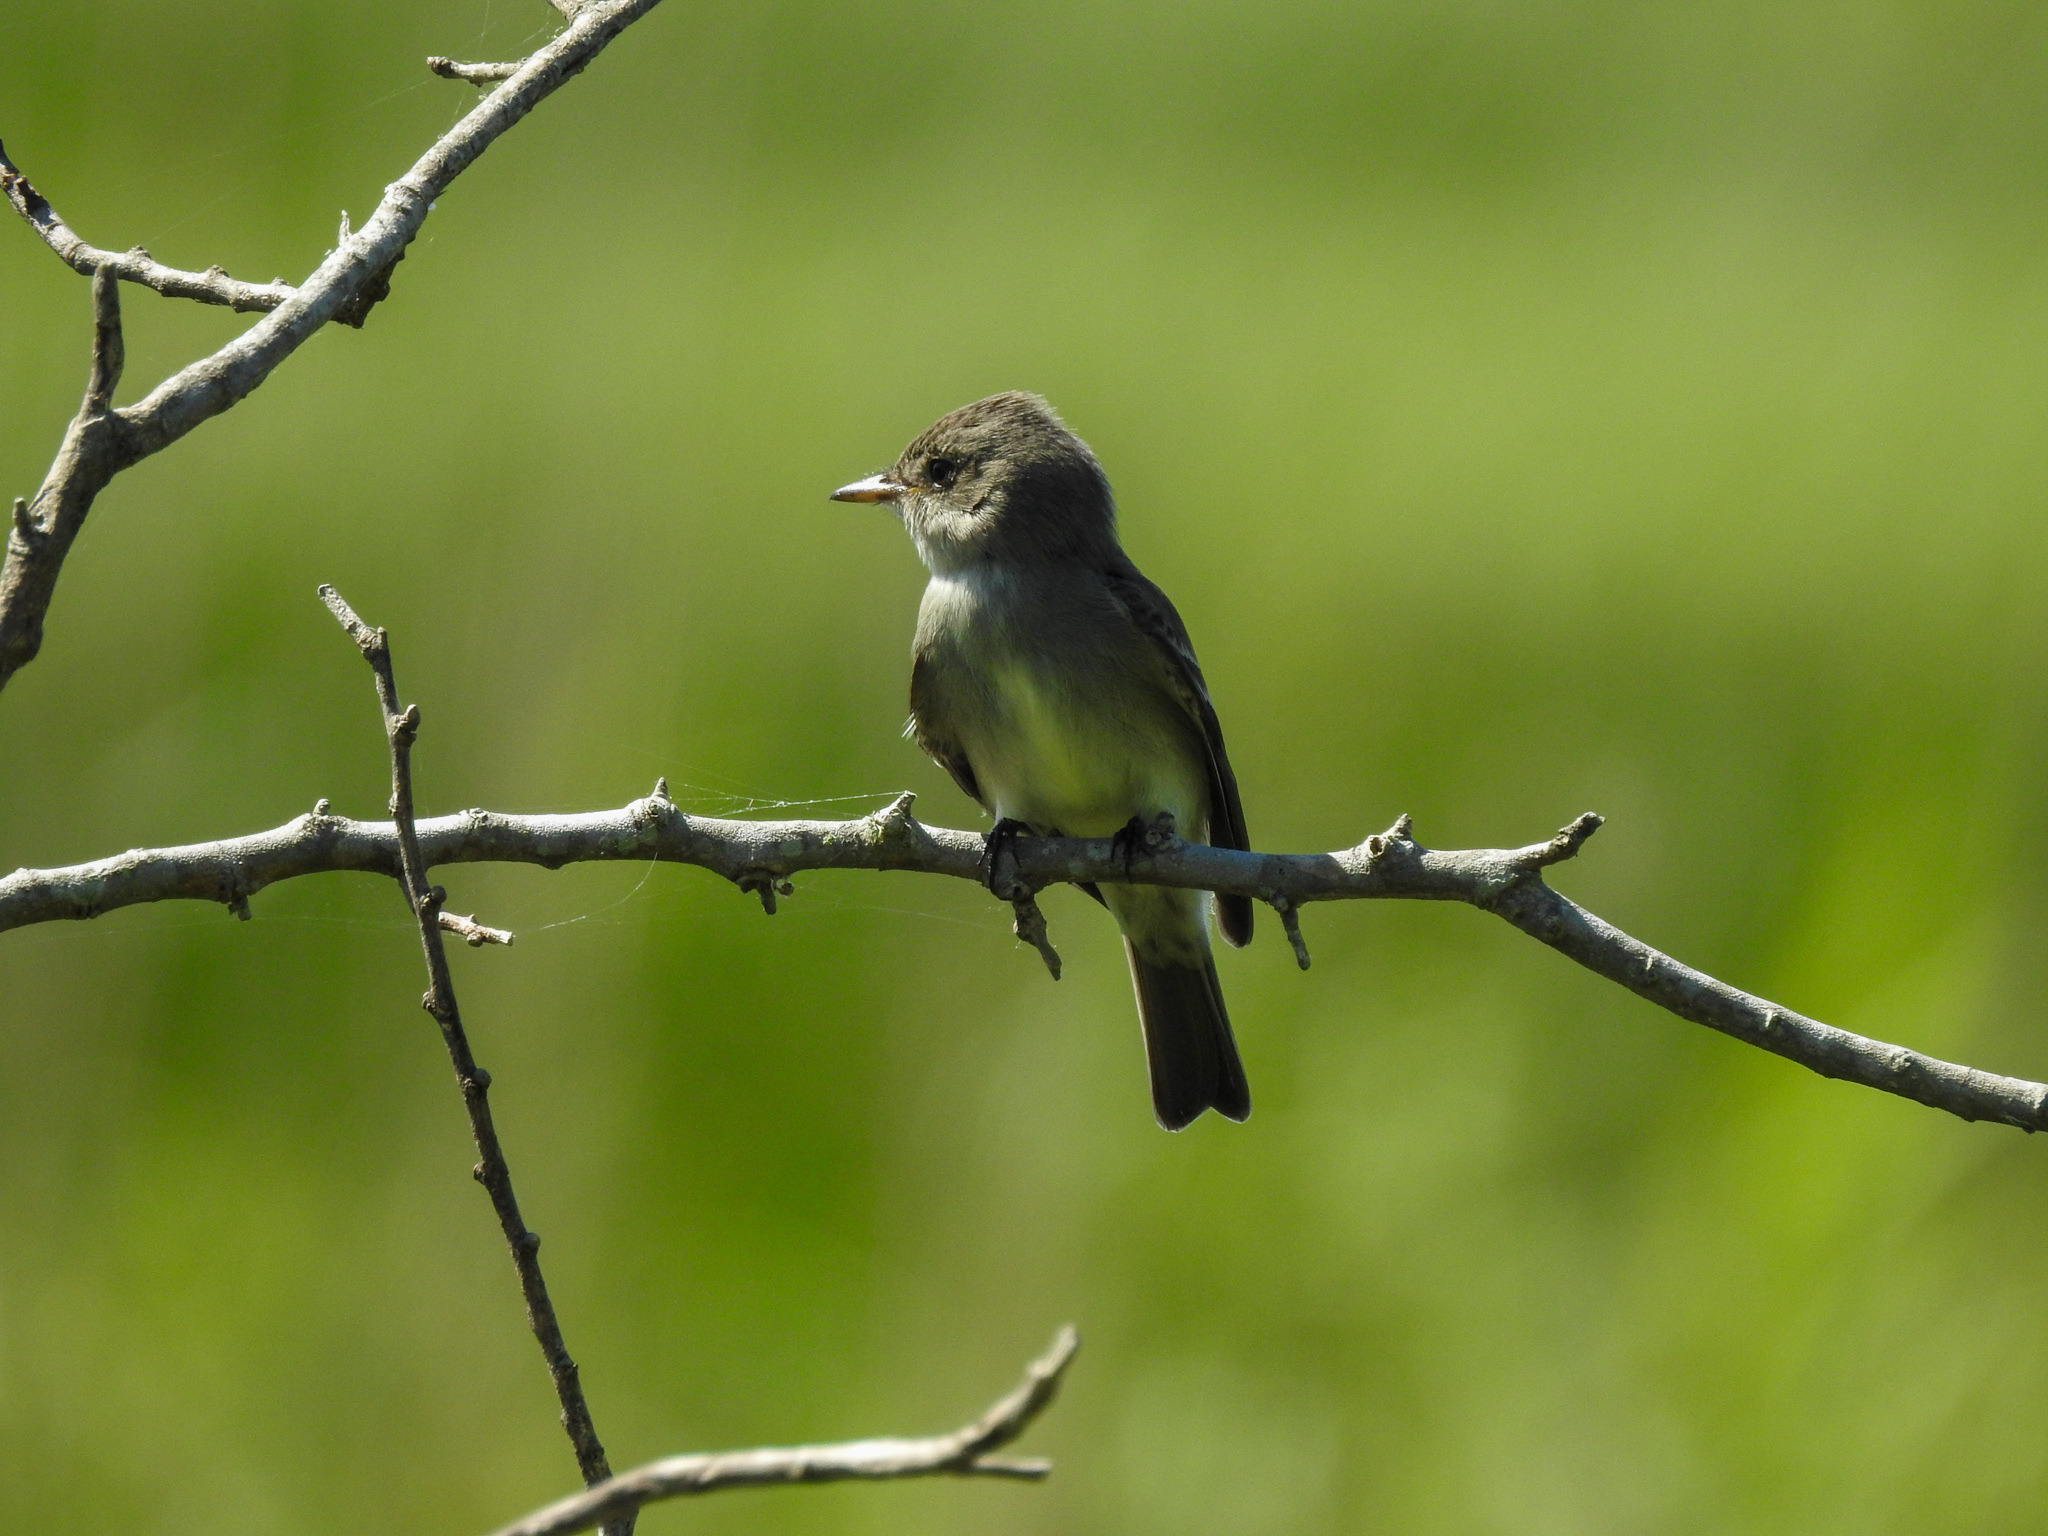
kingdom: Animalia
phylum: Chordata
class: Aves
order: Passeriformes
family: Tyrannidae
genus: Contopus
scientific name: Contopus virens
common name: Eastern wood-pewee
